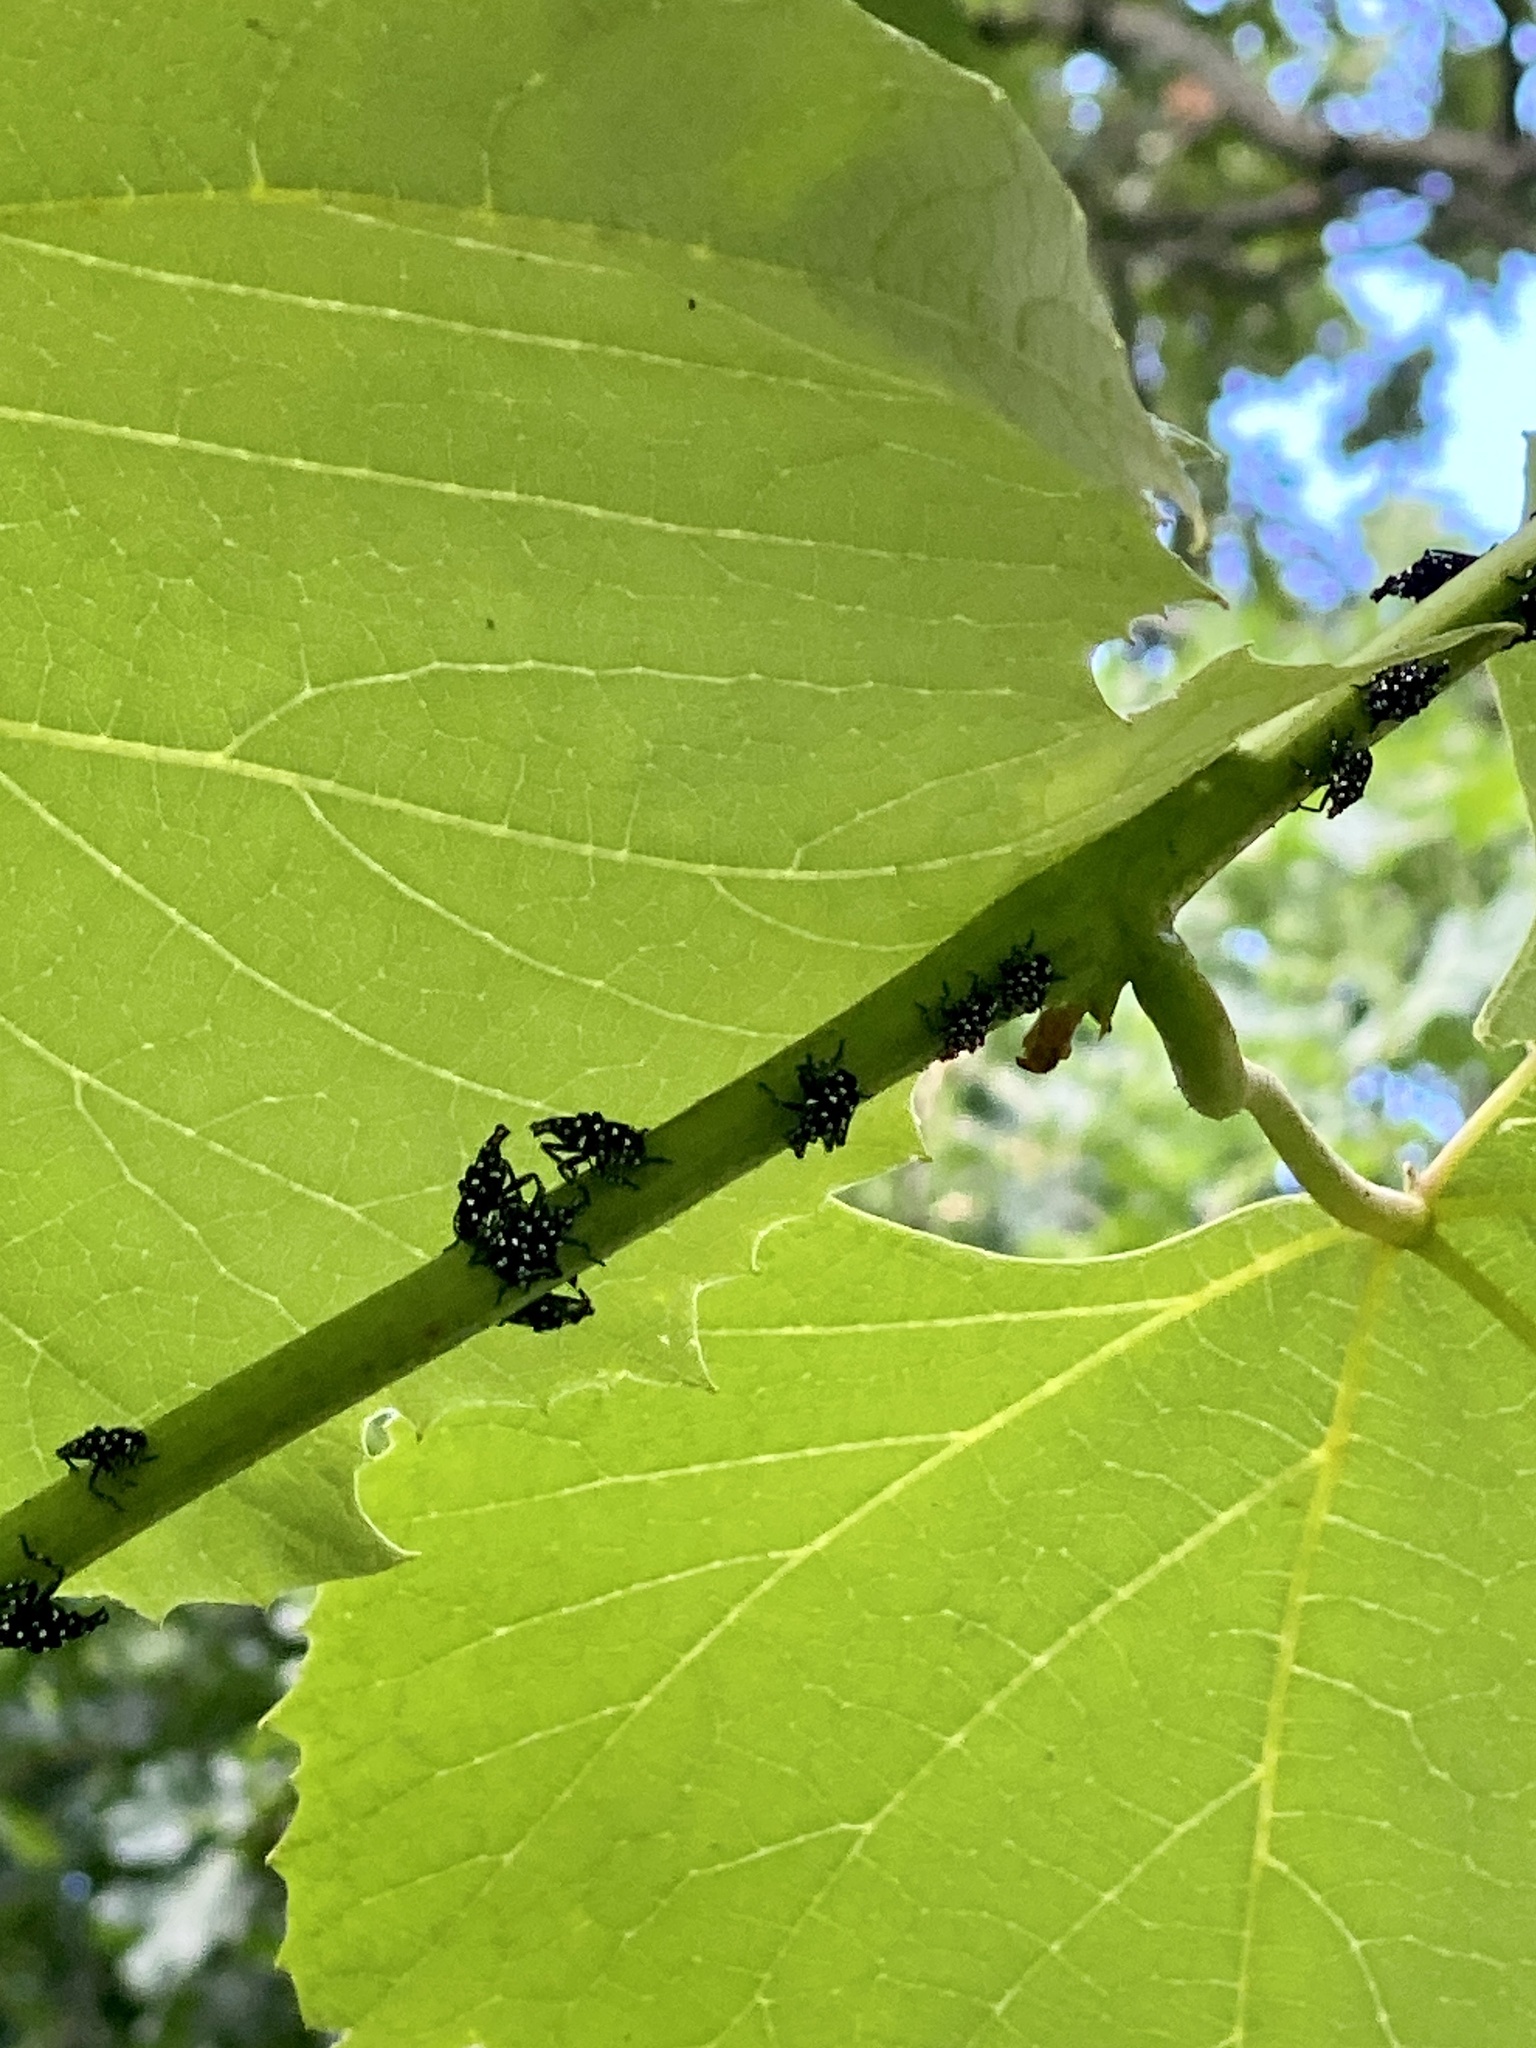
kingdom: Animalia
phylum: Arthropoda
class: Insecta
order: Hemiptera
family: Fulgoridae
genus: Lycorma
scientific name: Lycorma delicatula
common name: Spotted lanternfly
